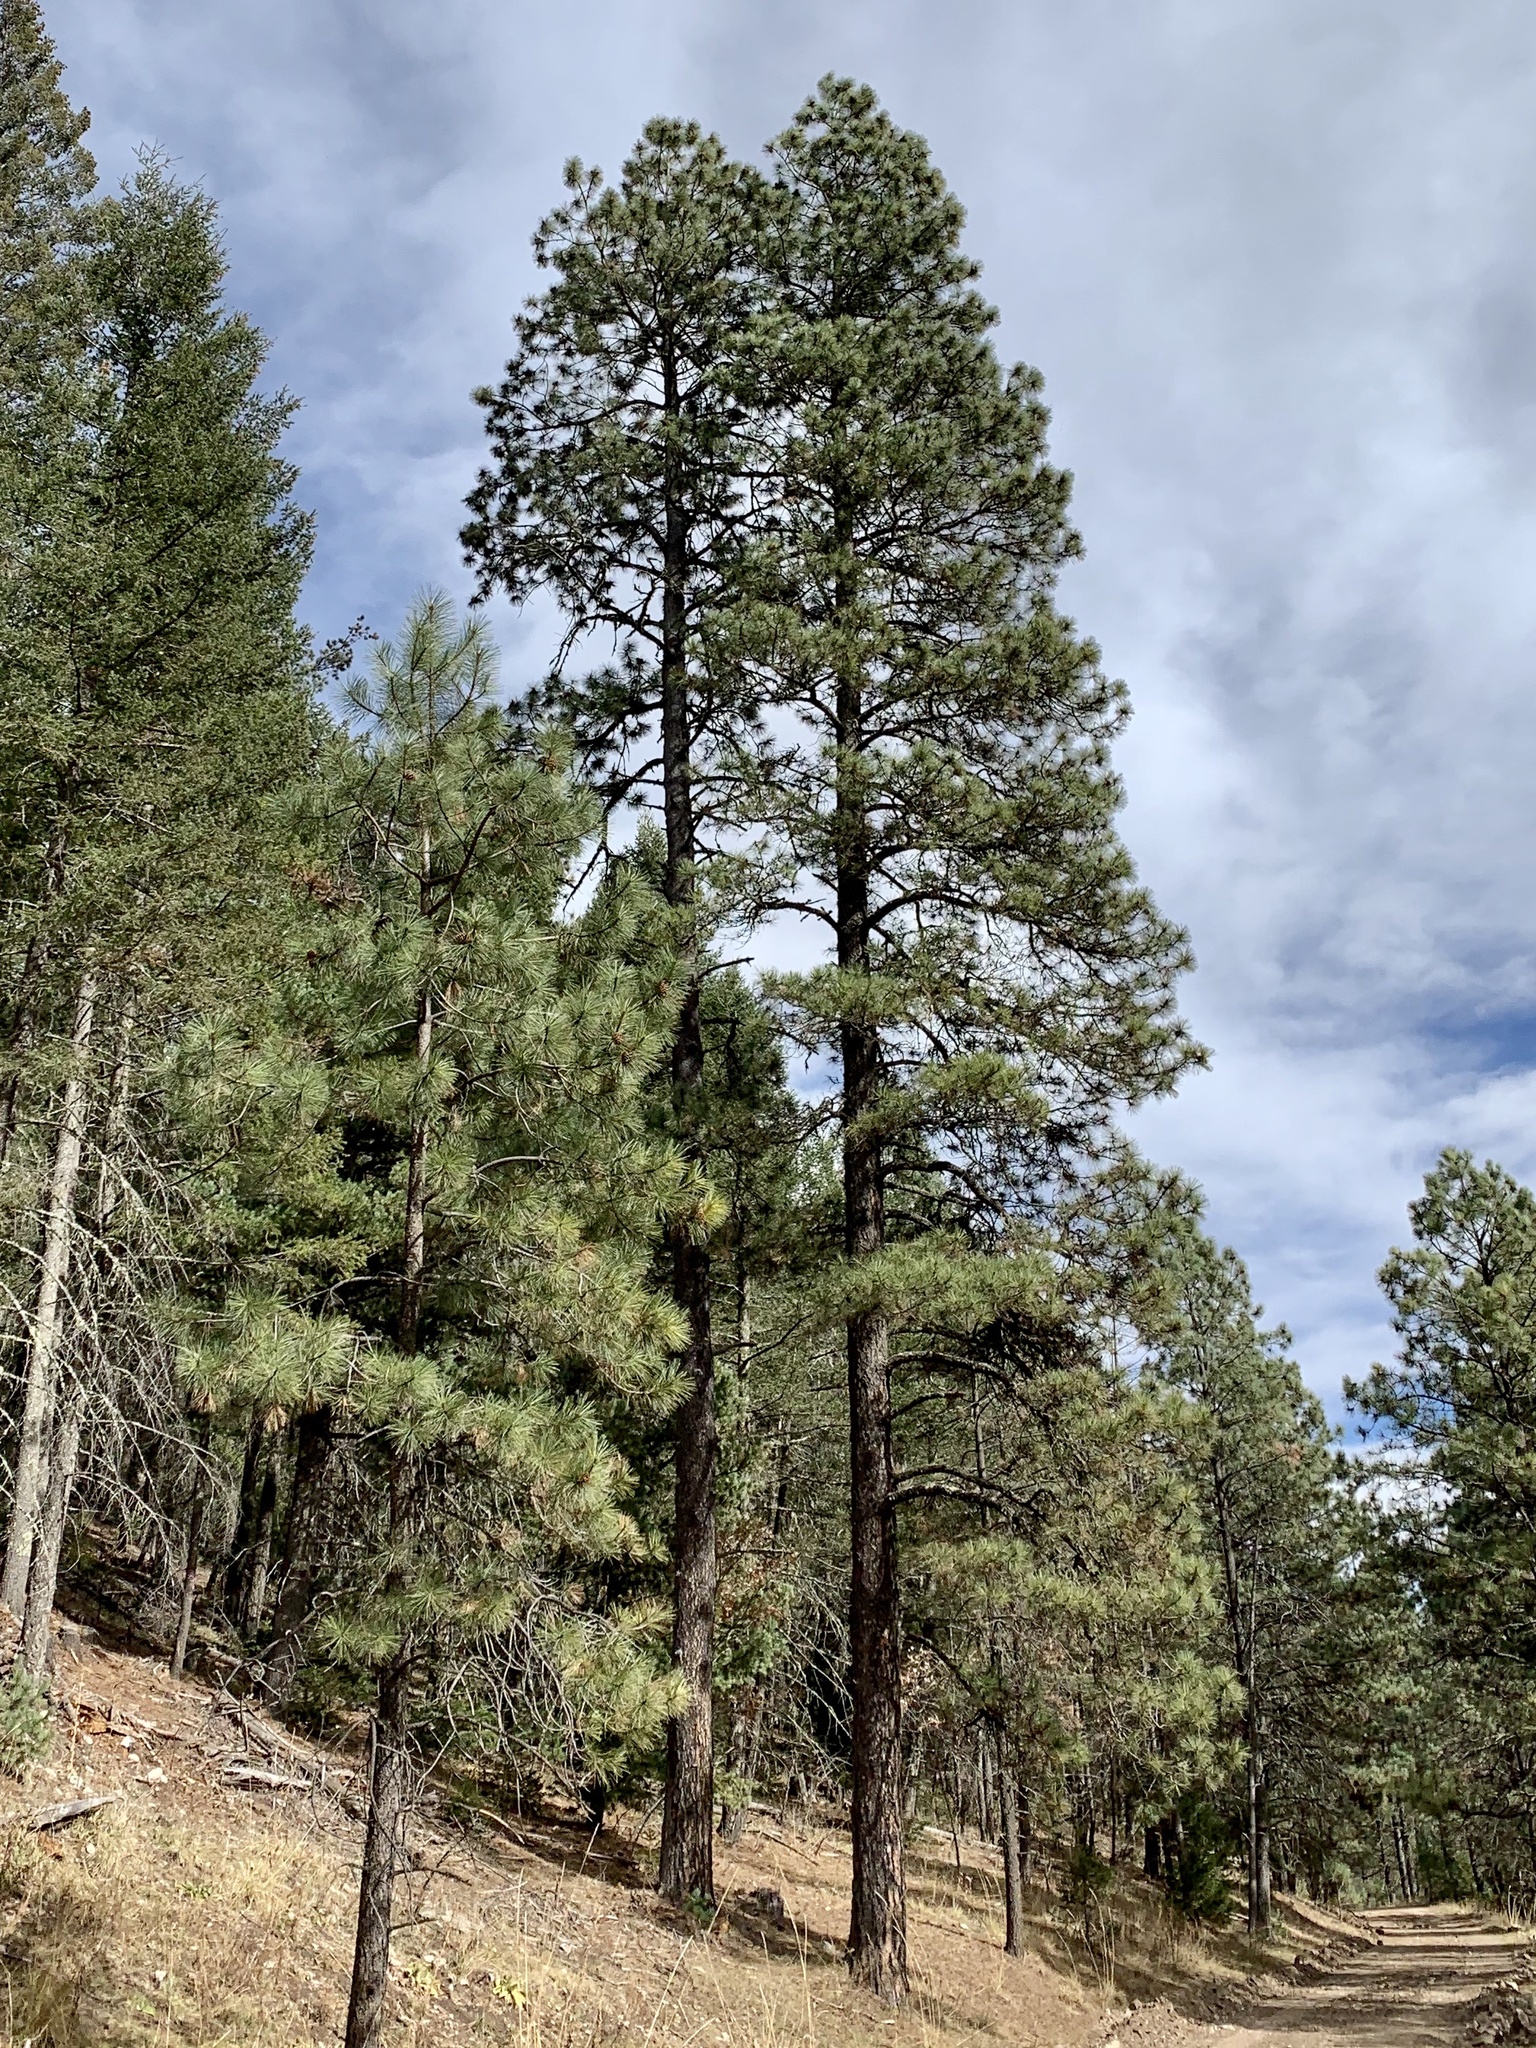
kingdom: Plantae
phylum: Tracheophyta
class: Pinopsida
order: Pinales
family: Pinaceae
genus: Pinus
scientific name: Pinus ponderosa
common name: Western yellow-pine
